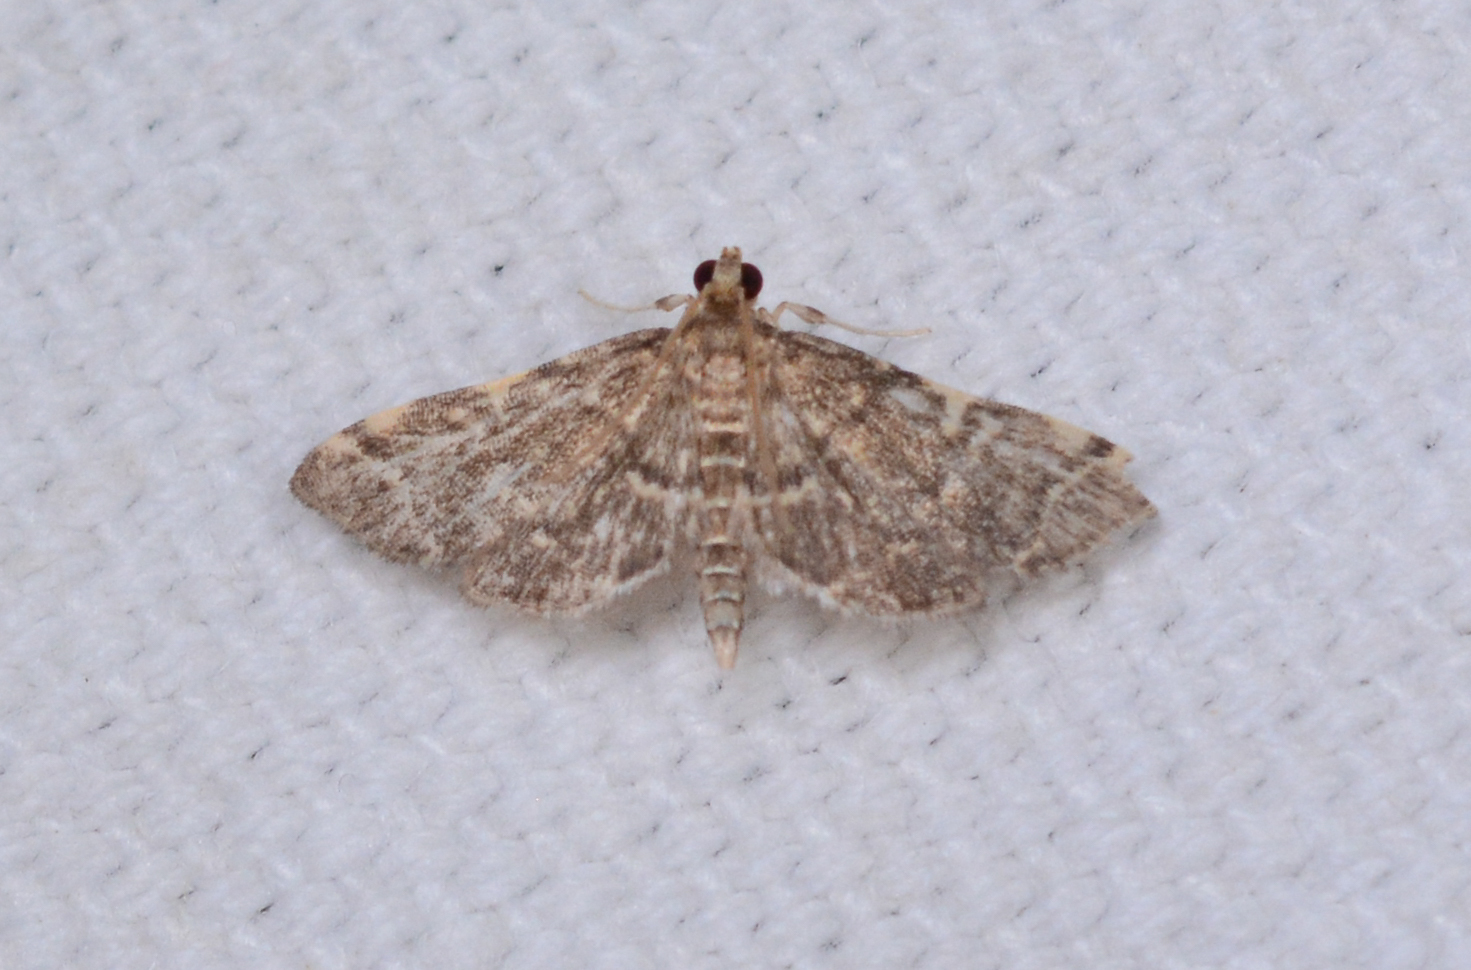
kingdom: Animalia
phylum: Arthropoda
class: Insecta
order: Lepidoptera
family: Crambidae
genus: Anageshna
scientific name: Anageshna primordialis
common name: Yellow-spotted webworm moth
